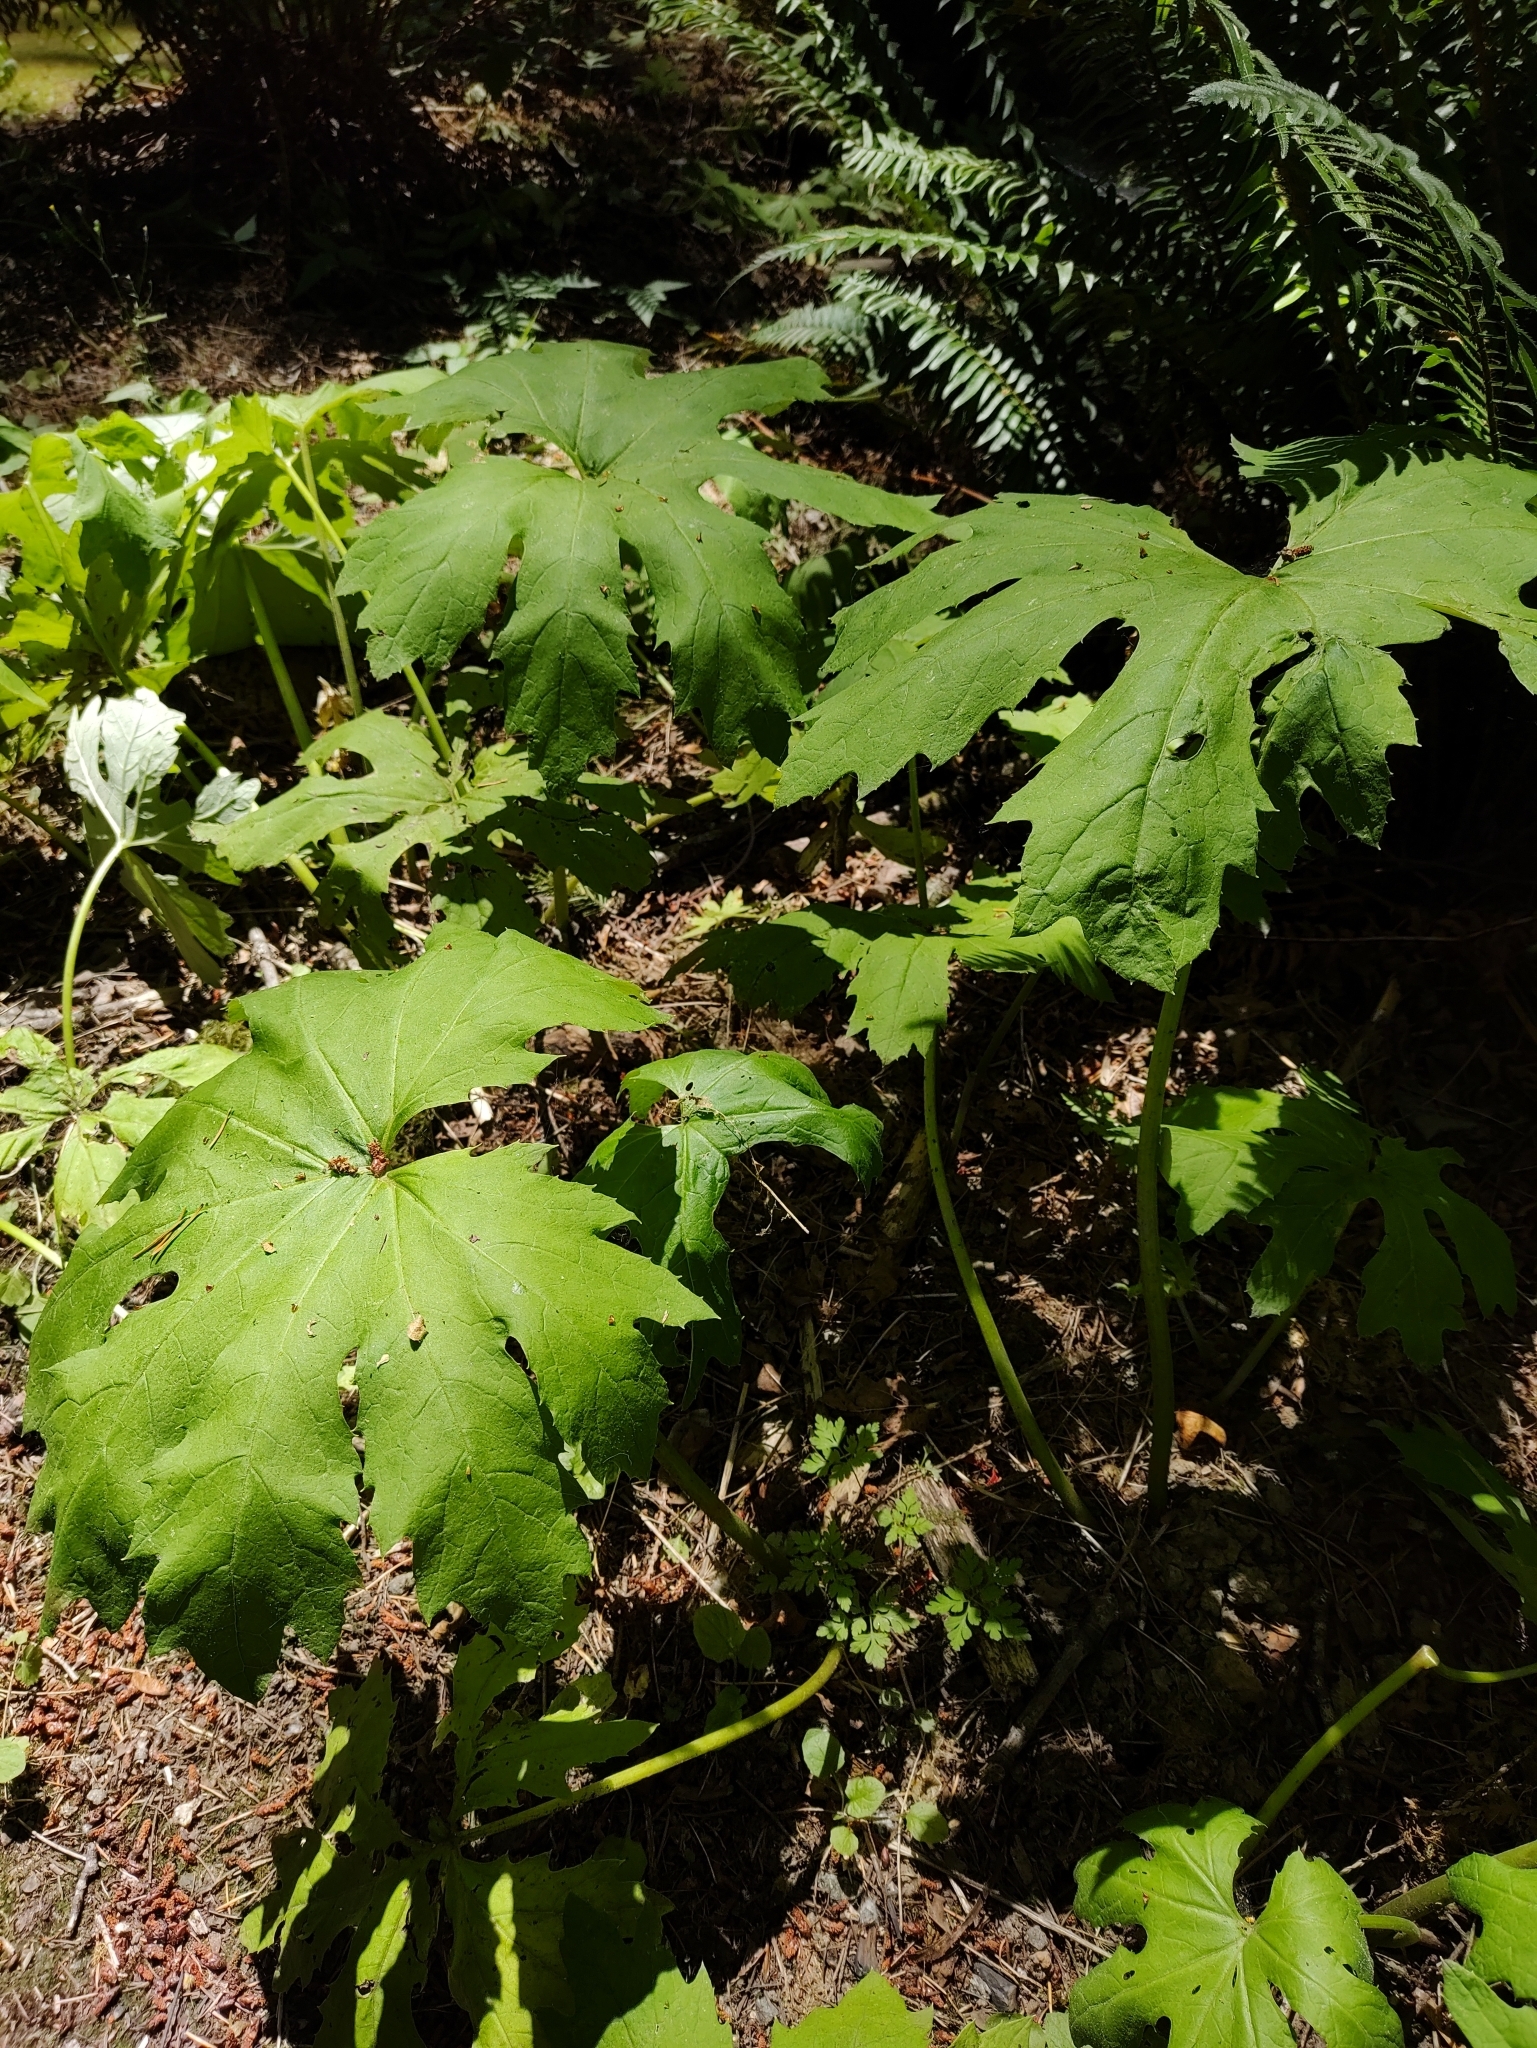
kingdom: Plantae
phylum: Tracheophyta
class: Magnoliopsida
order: Asterales
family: Asteraceae
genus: Petasites
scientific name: Petasites frigidus
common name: Arctic butterbur
